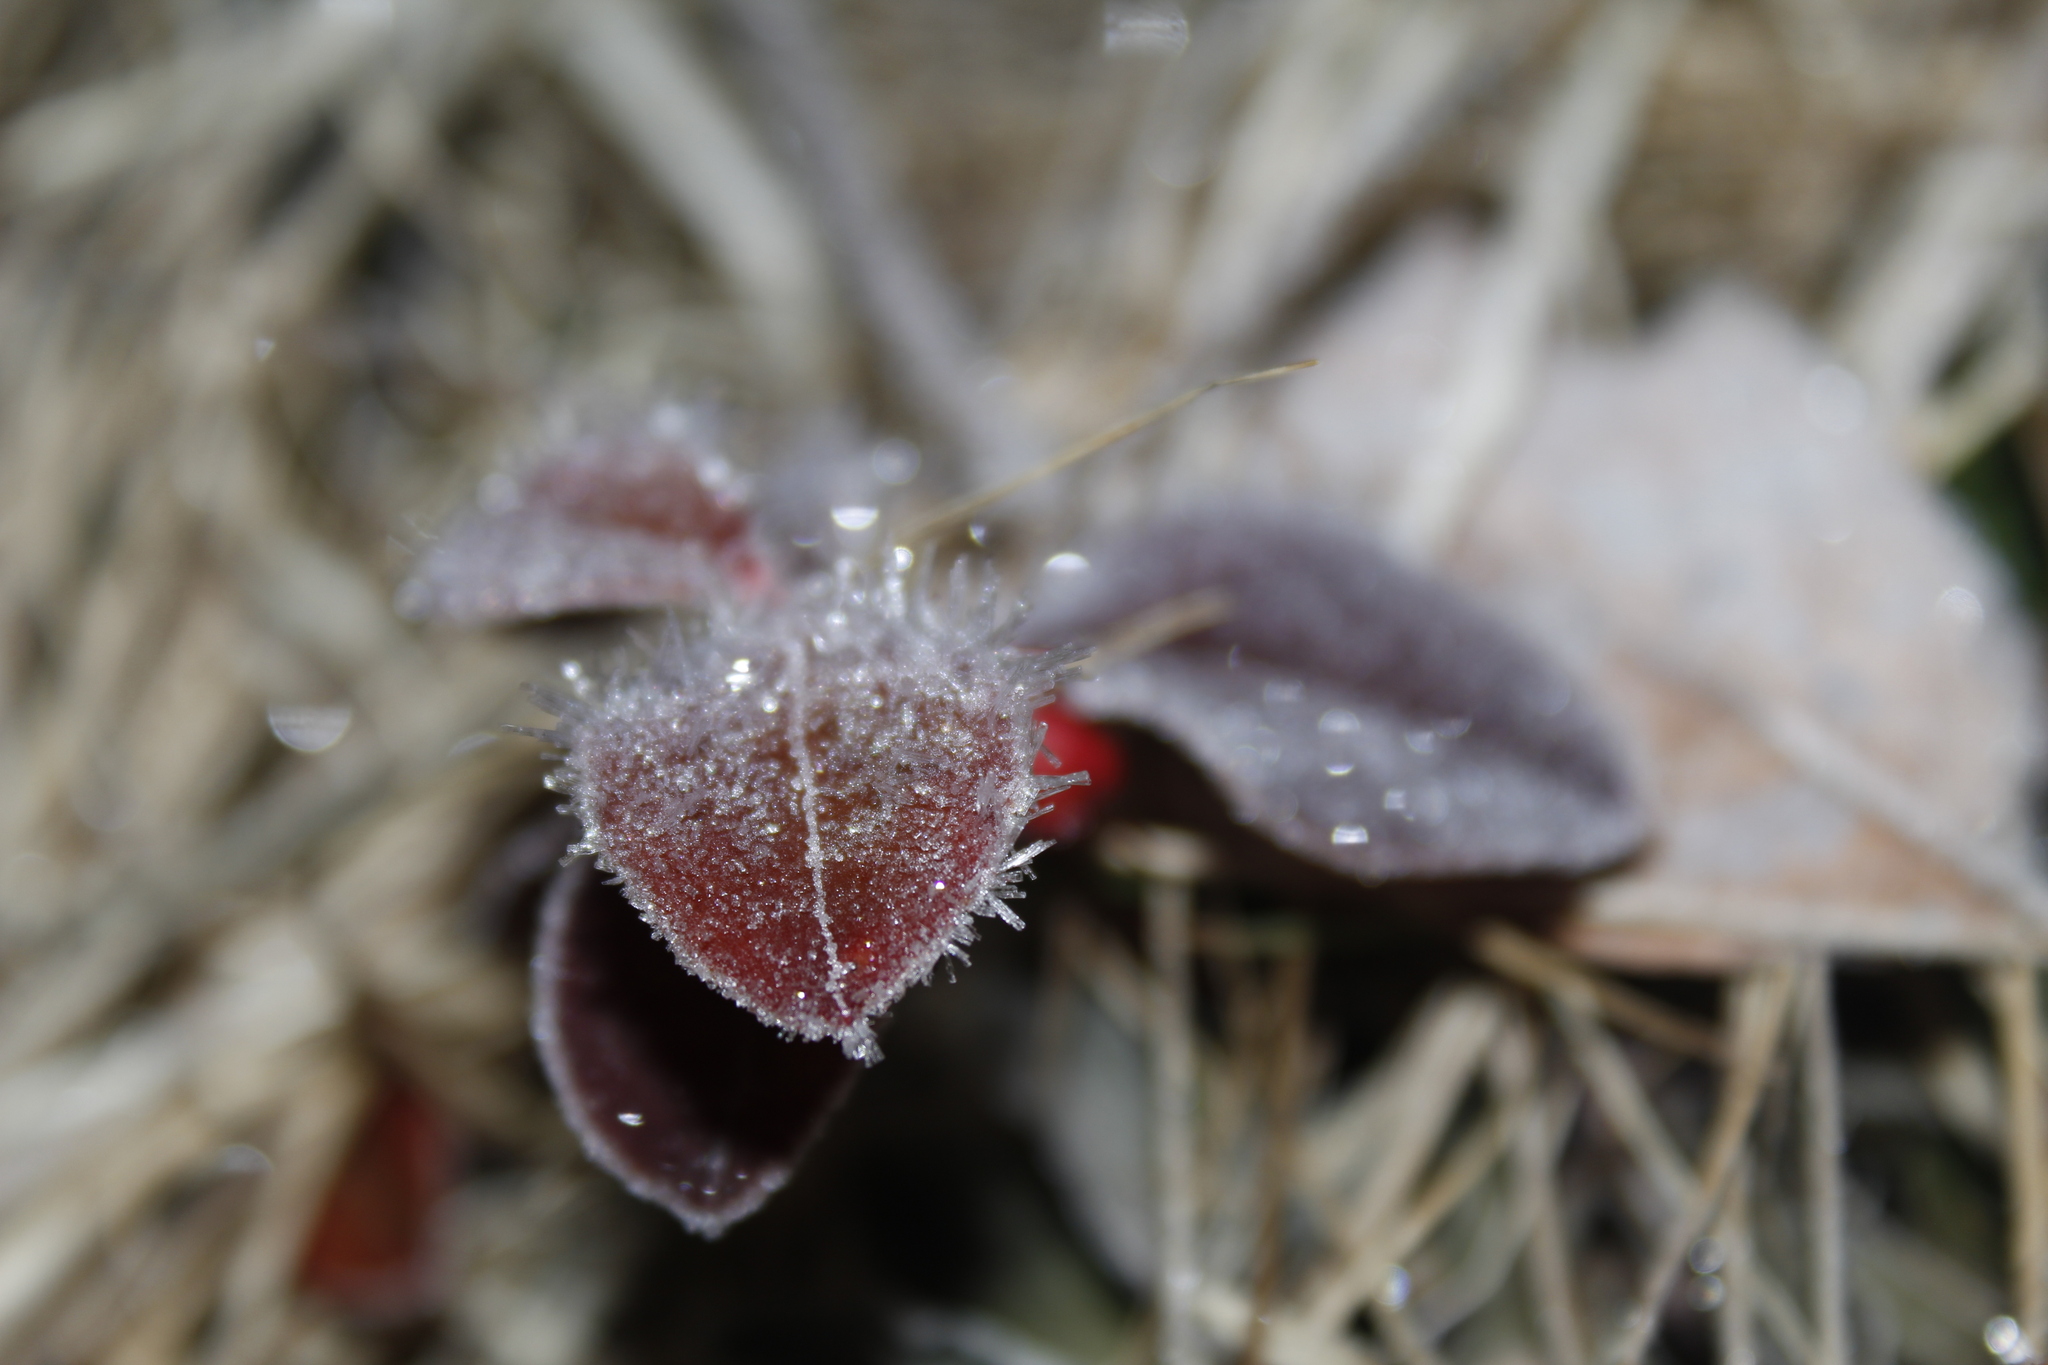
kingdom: Plantae
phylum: Tracheophyta
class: Magnoliopsida
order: Ericales
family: Ericaceae
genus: Gaultheria
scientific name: Gaultheria procumbens
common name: Checkerberry
